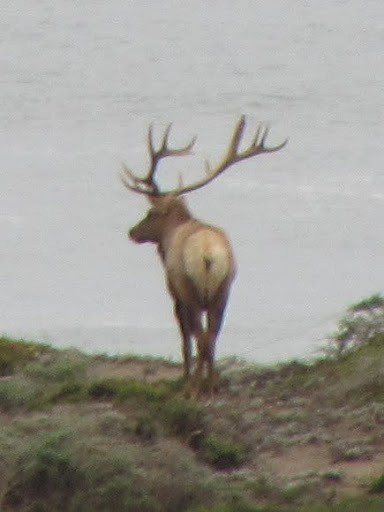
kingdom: Animalia
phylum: Chordata
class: Mammalia
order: Artiodactyla
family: Cervidae
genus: Cervus
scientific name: Cervus elaphus
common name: Red deer
